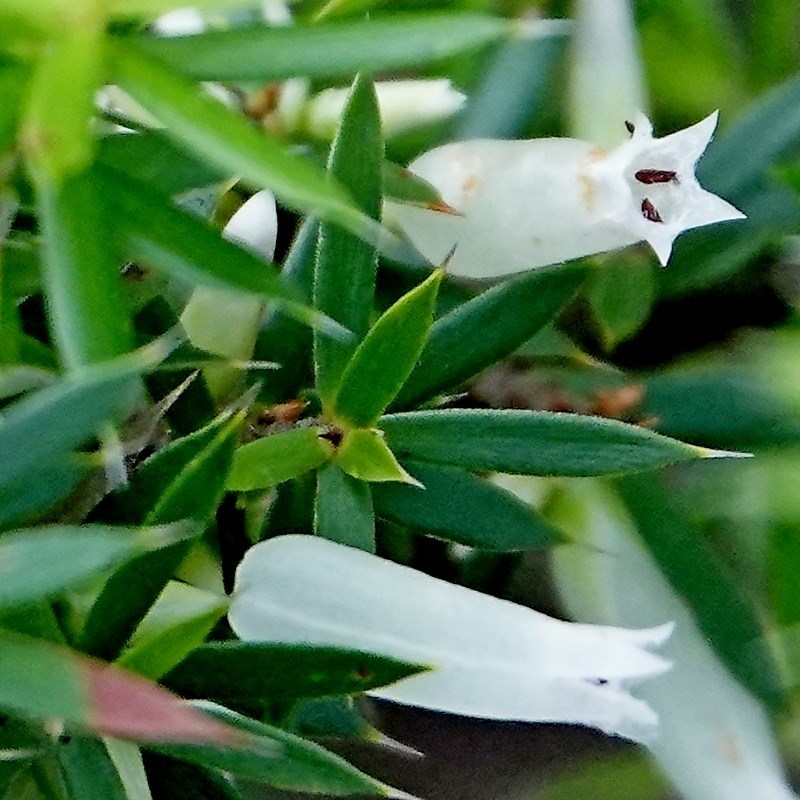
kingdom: Plantae
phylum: Tracheophyta
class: Magnoliopsida
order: Ericales
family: Ericaceae
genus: Styphelia
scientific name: Styphelia sieberi
